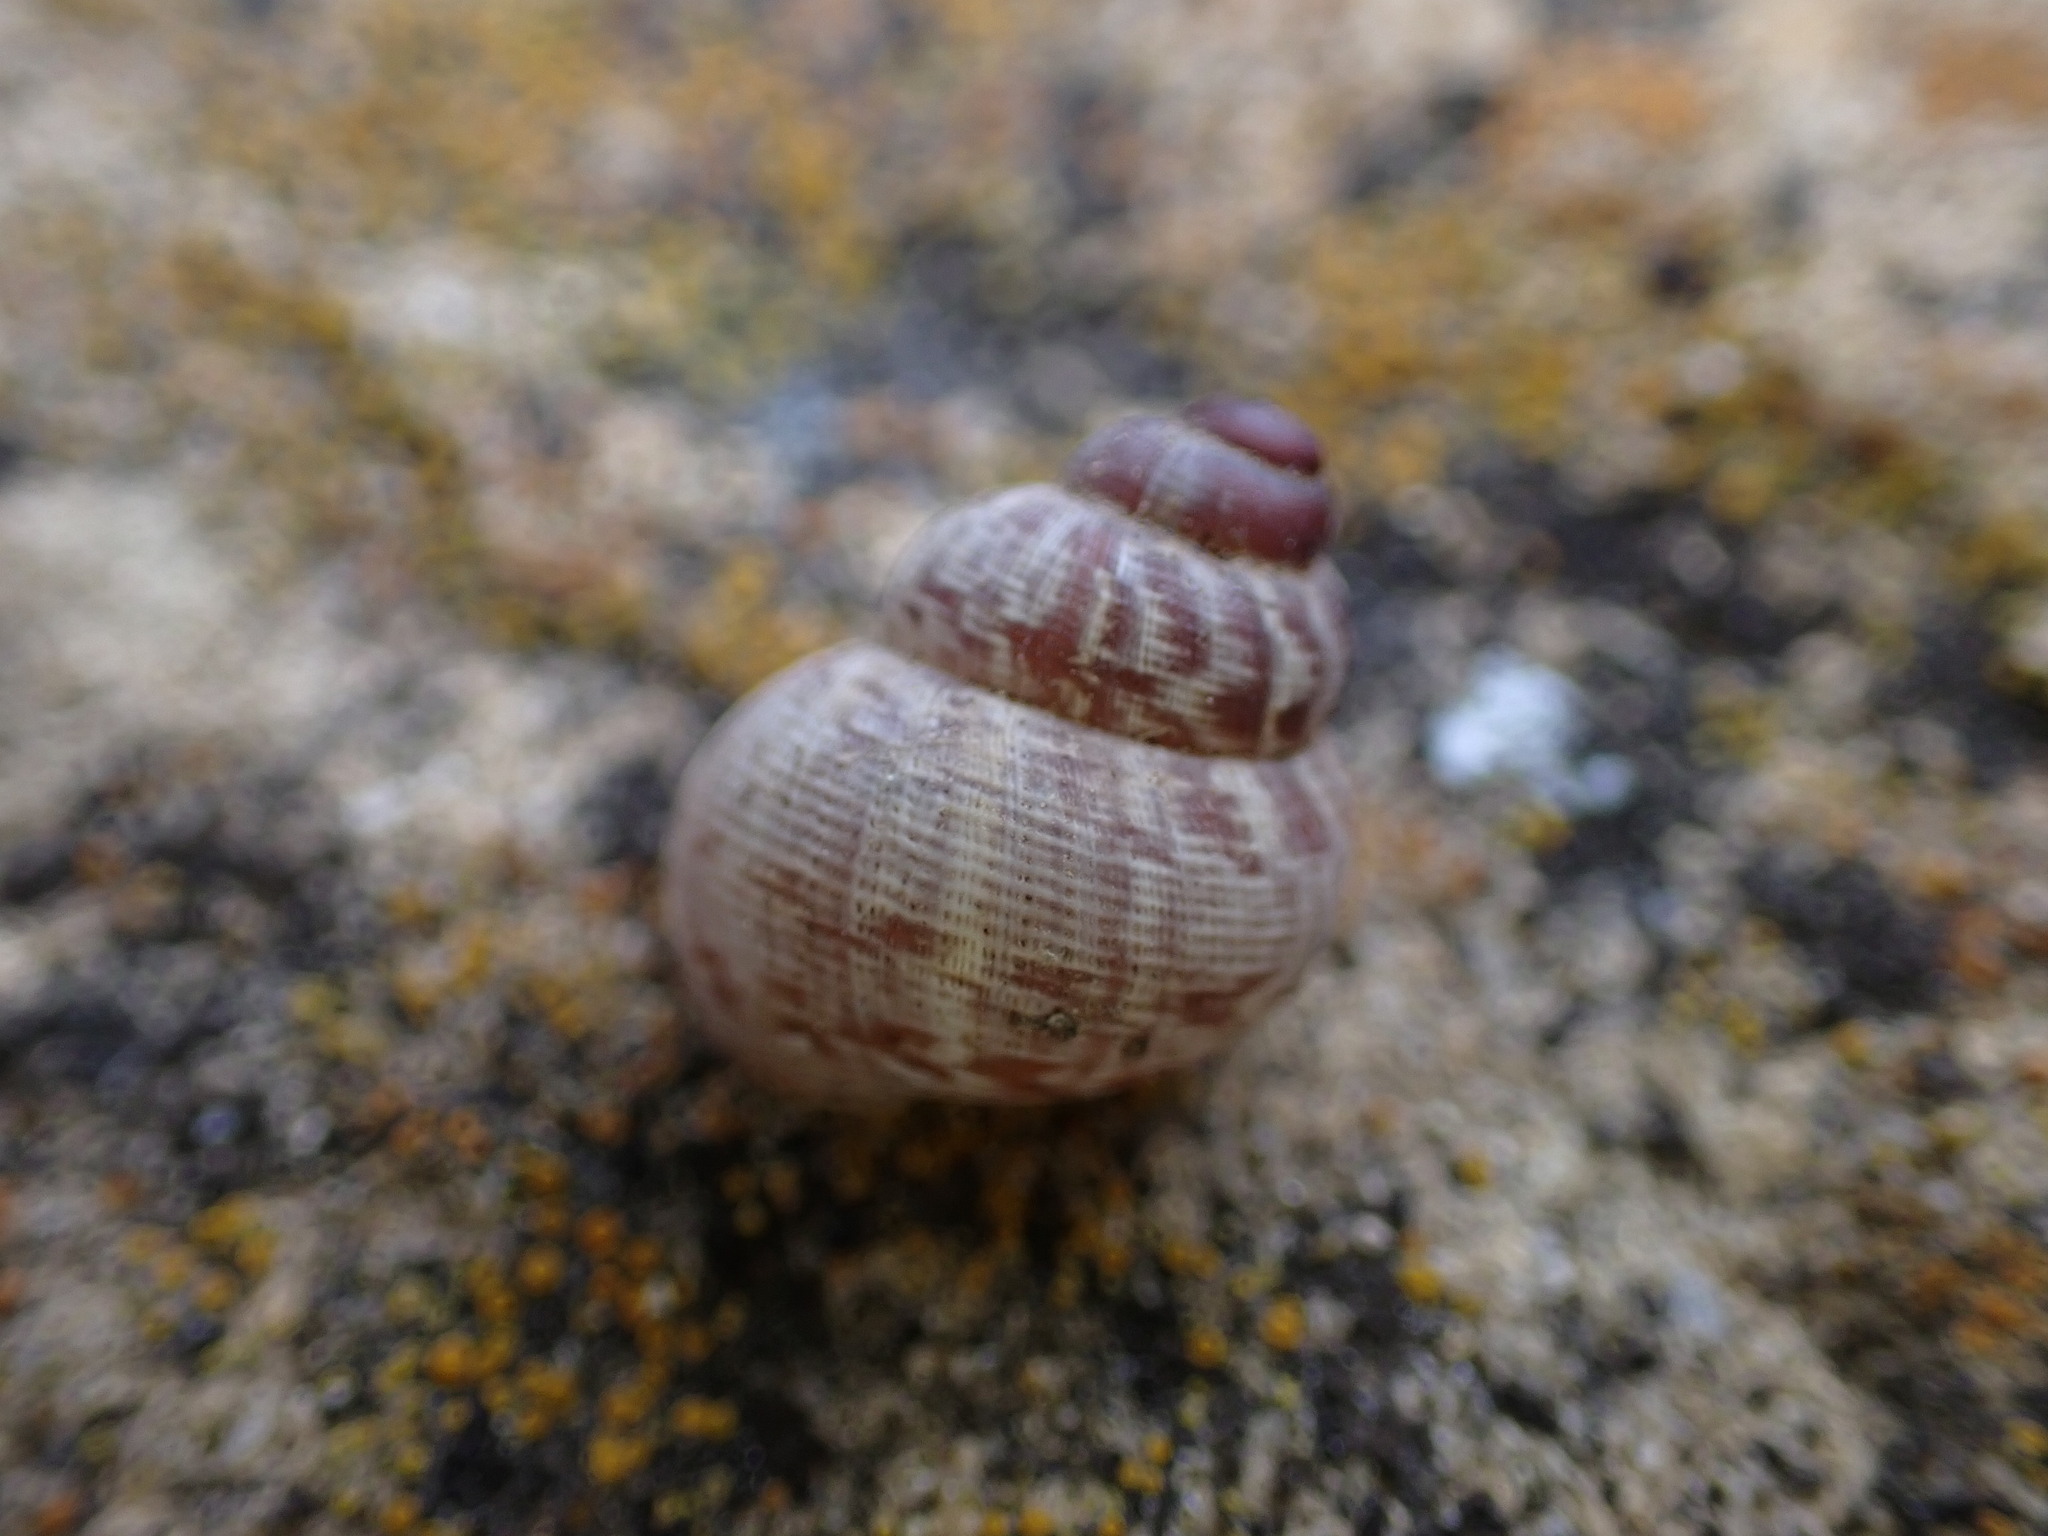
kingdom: Animalia
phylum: Mollusca
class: Gastropoda
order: Littorinimorpha
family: Pomatiidae
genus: Pomatias
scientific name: Pomatias elegans
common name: Red-mouthed snail
